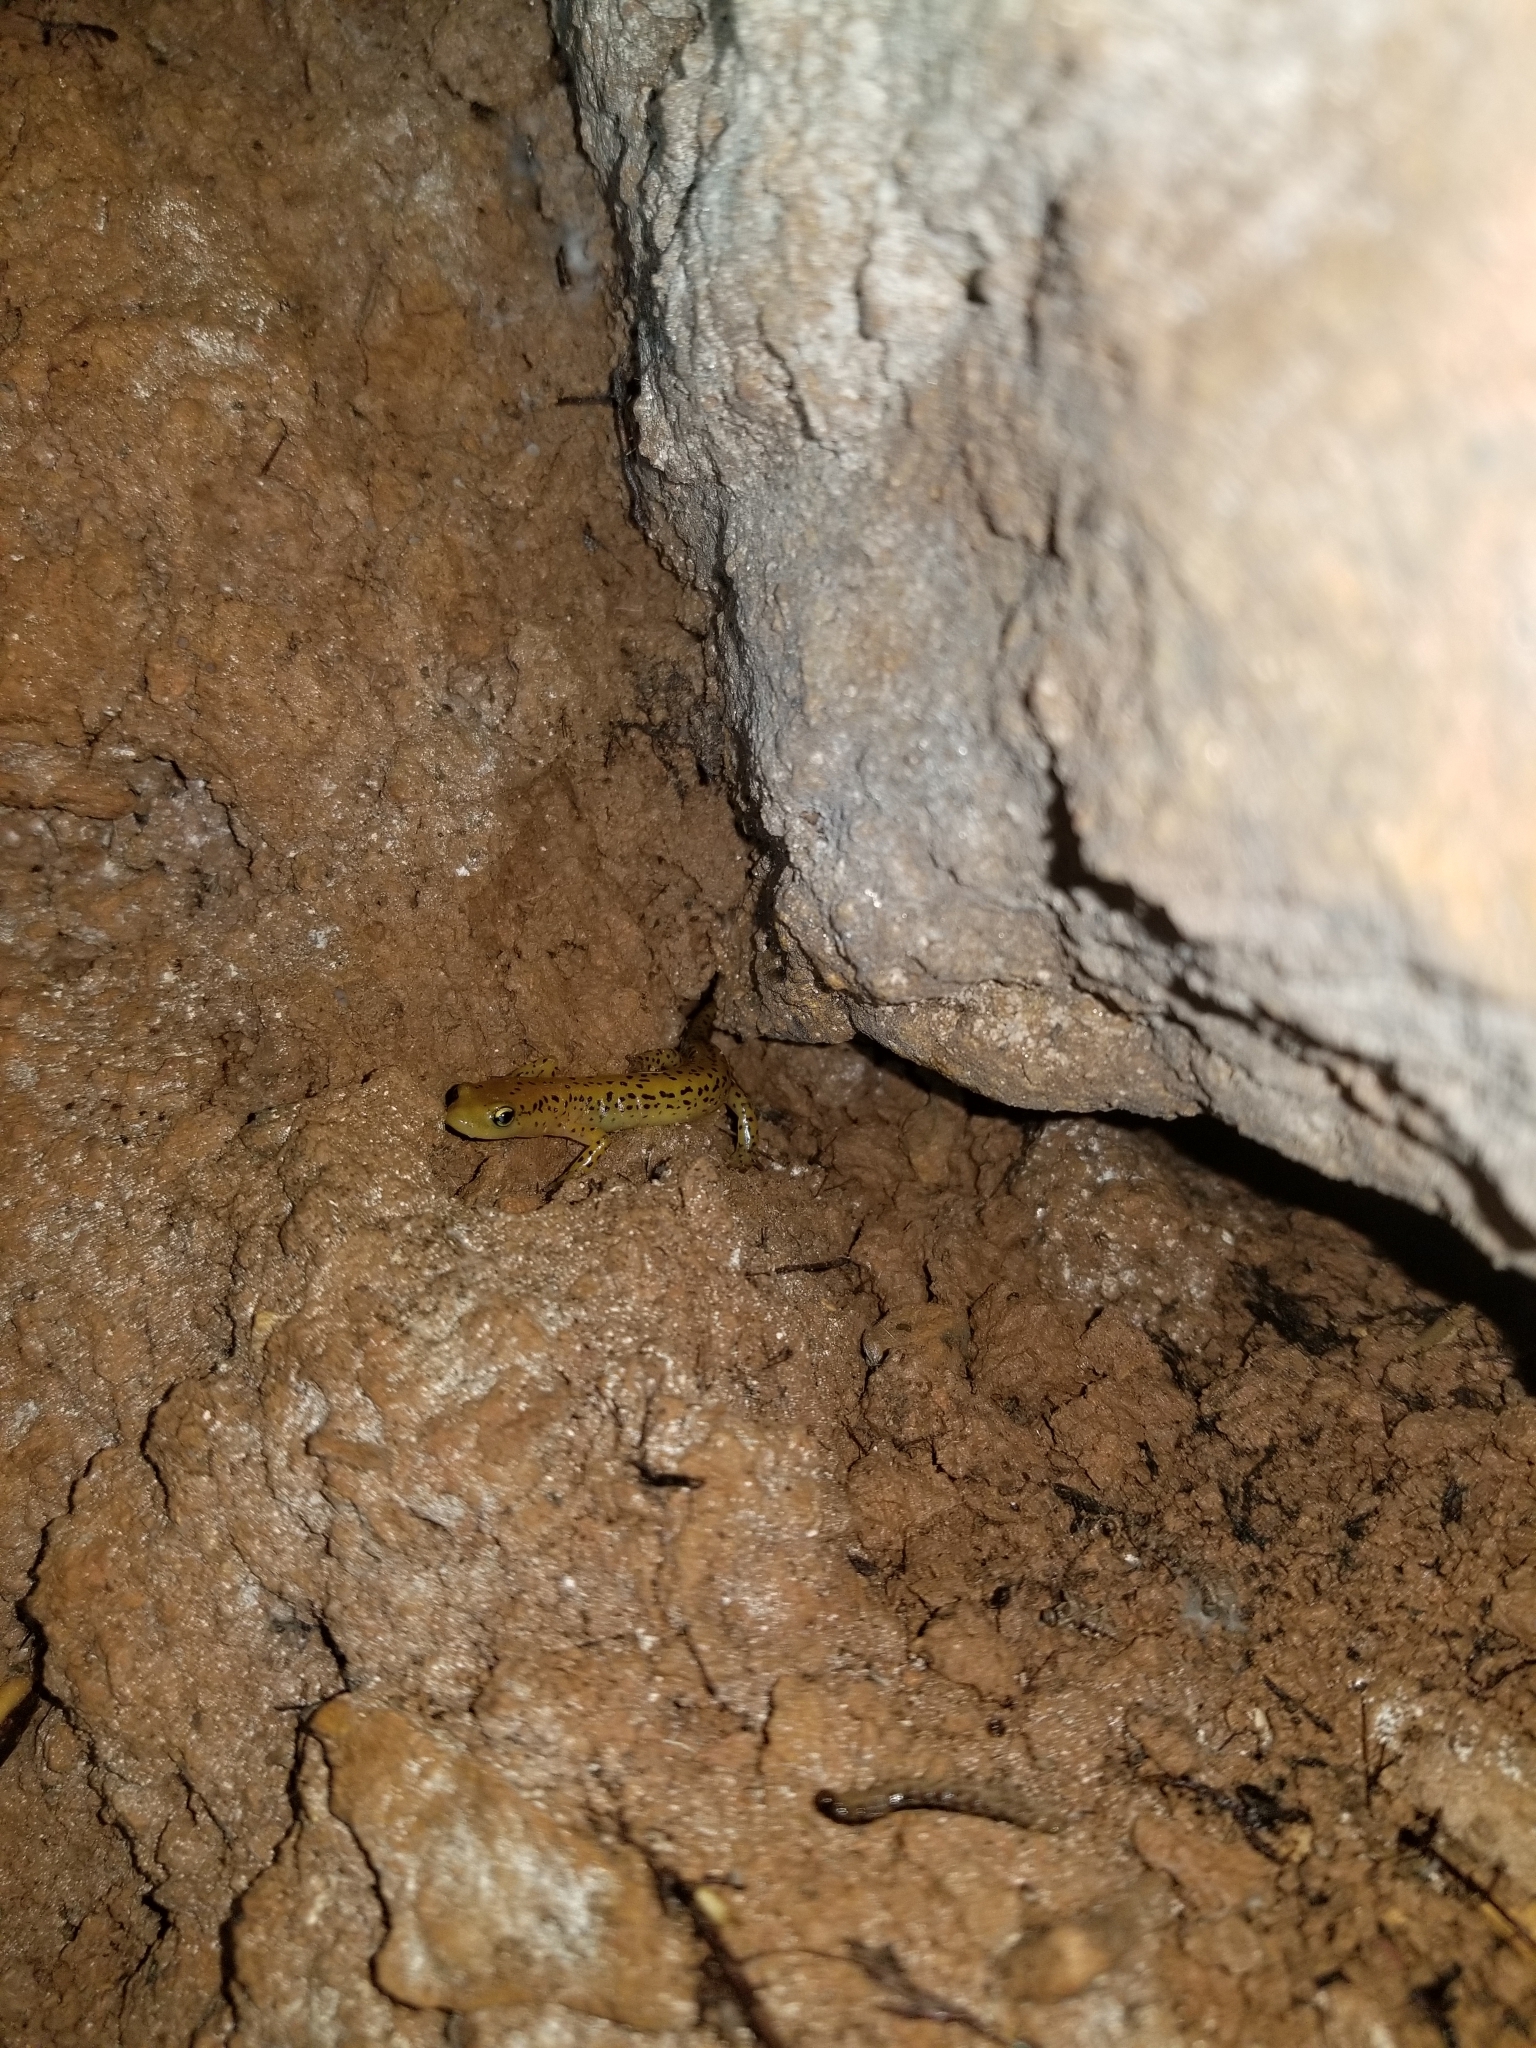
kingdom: Animalia
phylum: Chordata
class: Amphibia
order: Caudata
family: Plethodontidae
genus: Eurycea
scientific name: Eurycea longicauda
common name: Long-tailed salamander
